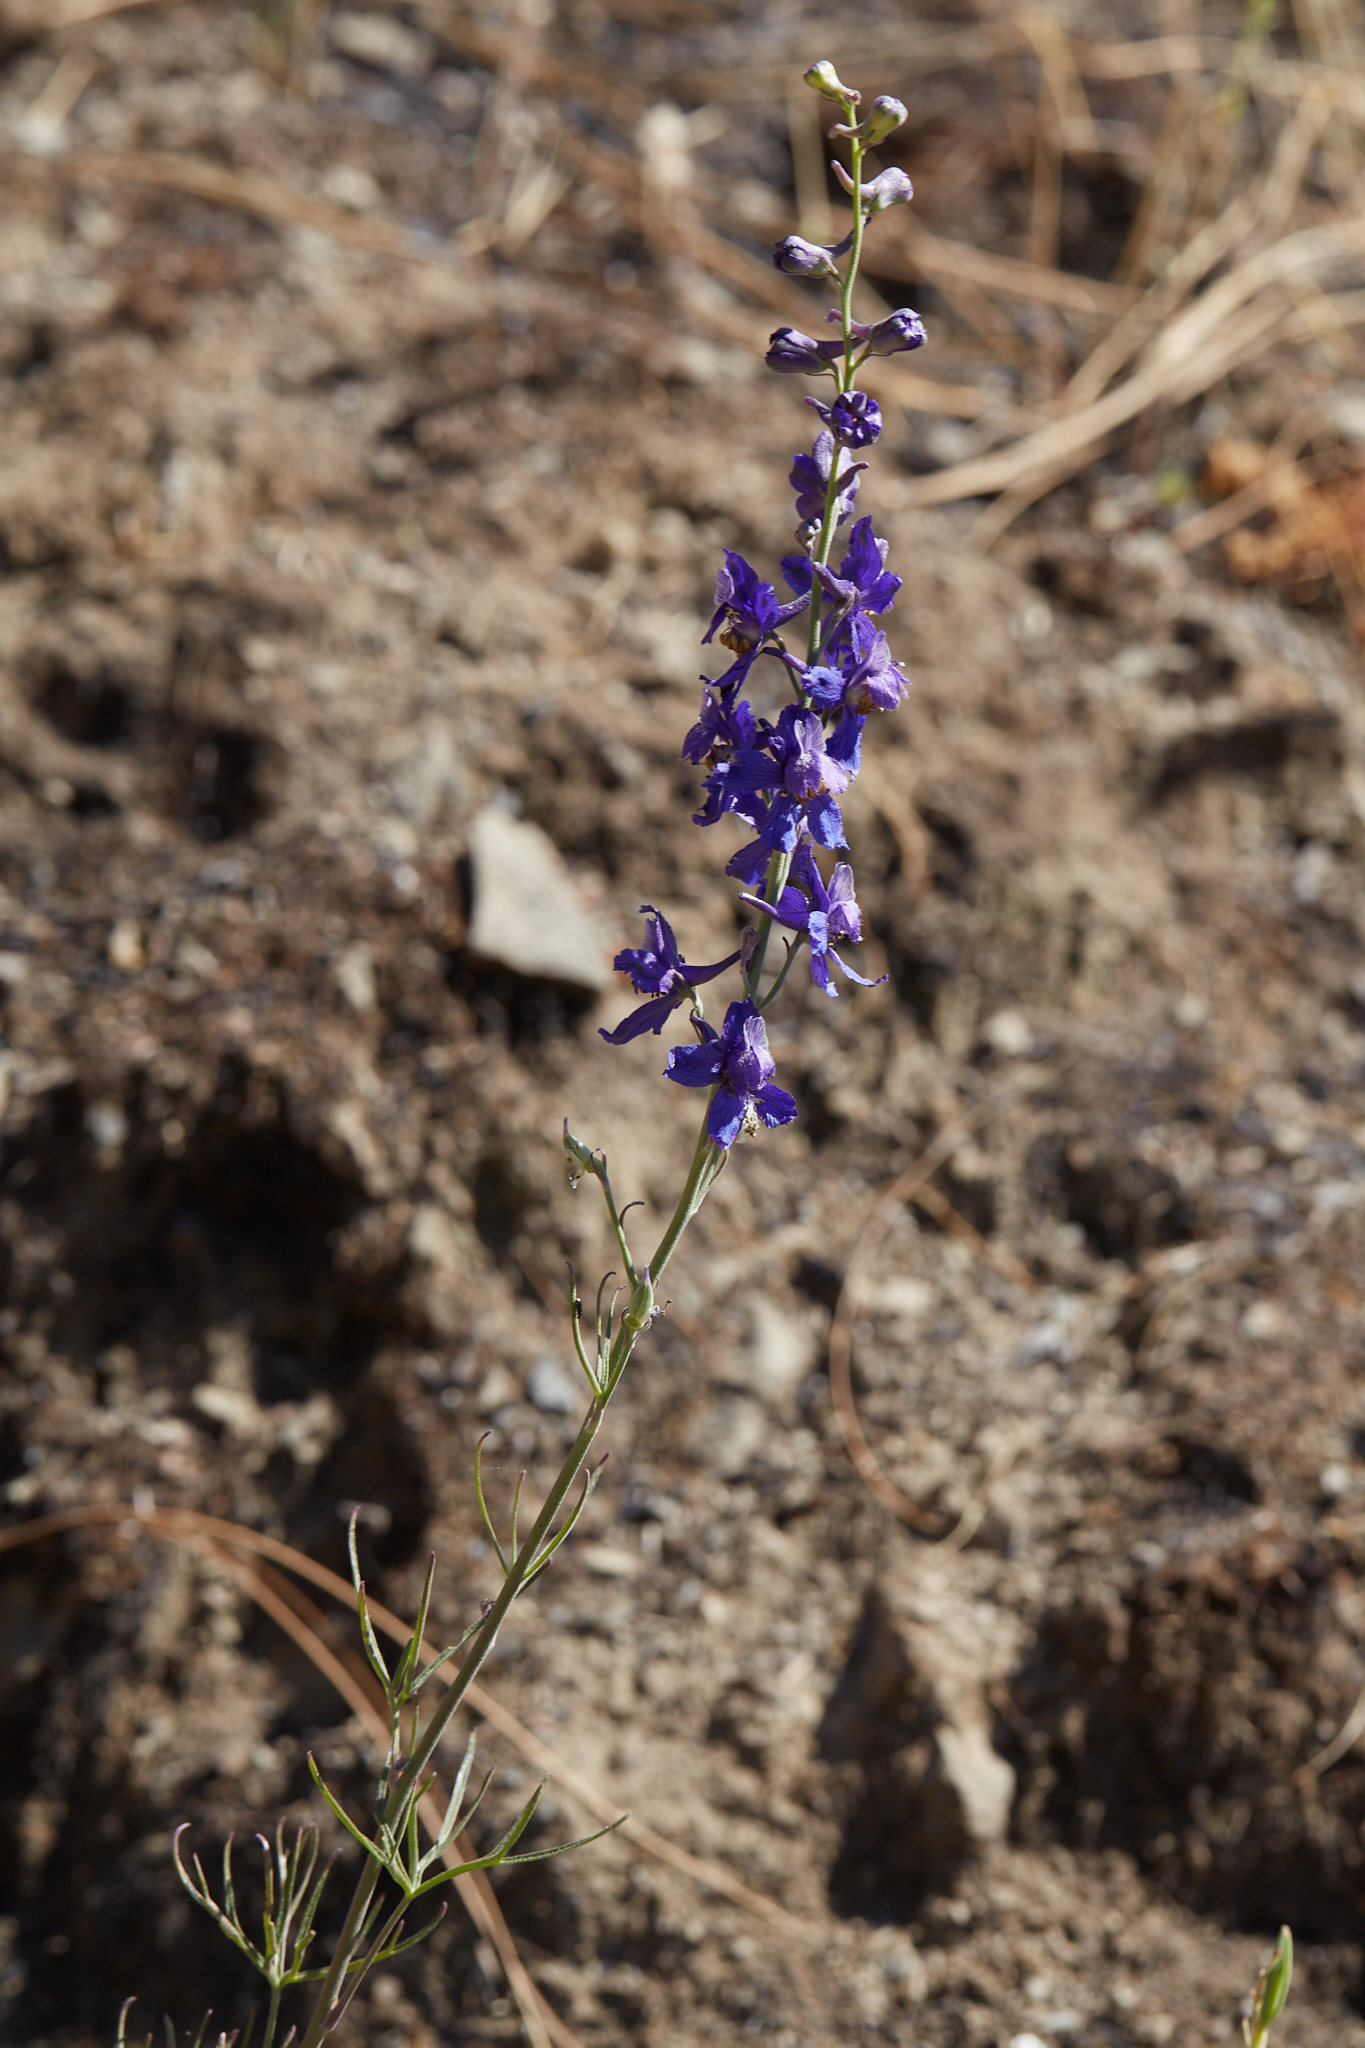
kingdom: Plantae
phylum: Tracheophyta
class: Magnoliopsida
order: Ranunculales
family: Ranunculaceae
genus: Delphinium
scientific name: Delphinium parryi
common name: Parry's larkspur
